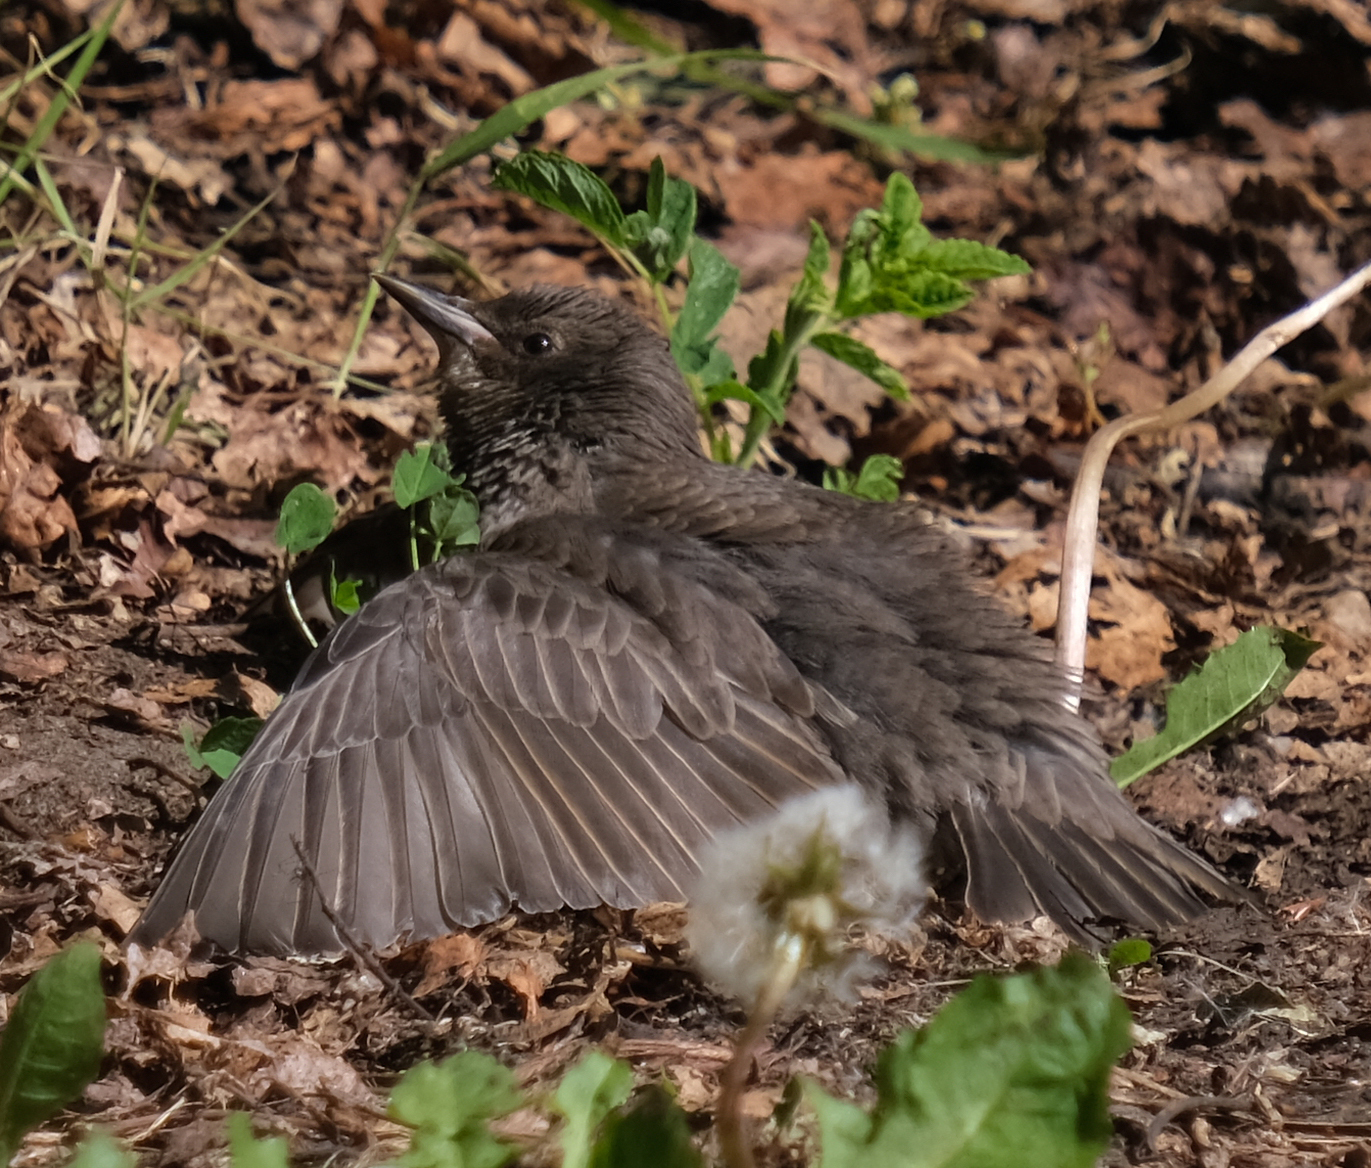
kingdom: Animalia
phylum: Chordata
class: Aves
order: Passeriformes
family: Sturnidae
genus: Sturnus
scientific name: Sturnus vulgaris
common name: Common starling
